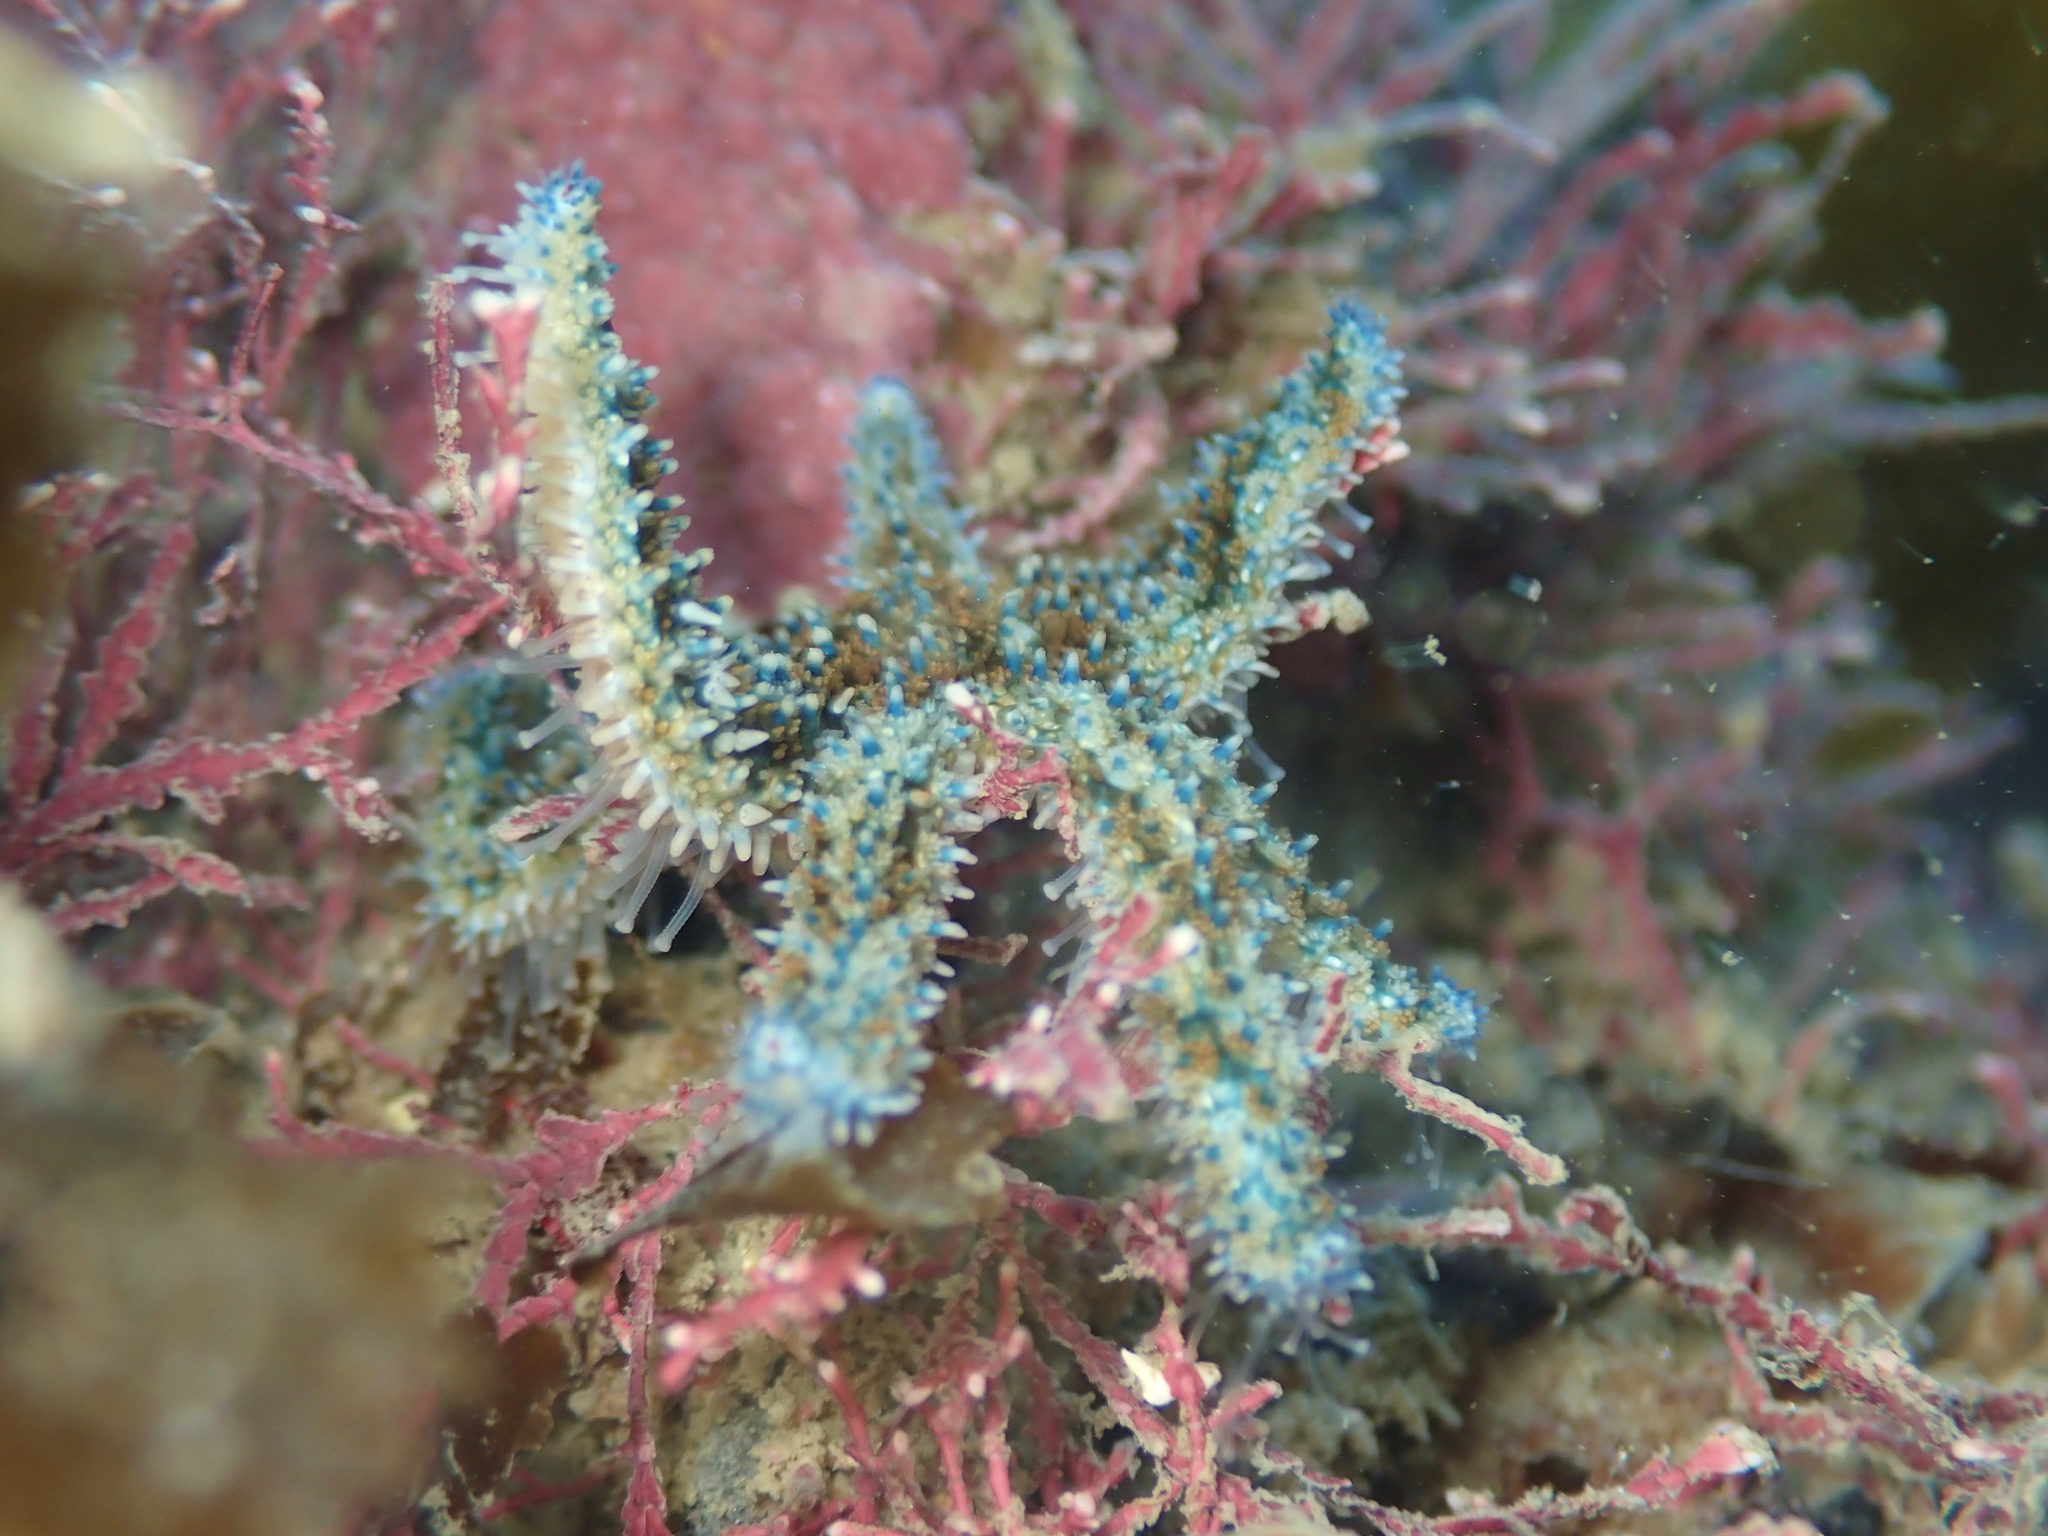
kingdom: Animalia
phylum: Echinodermata
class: Asteroidea
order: Forcipulatida
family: Asteriidae
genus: Coscinasterias
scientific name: Coscinasterias muricata
